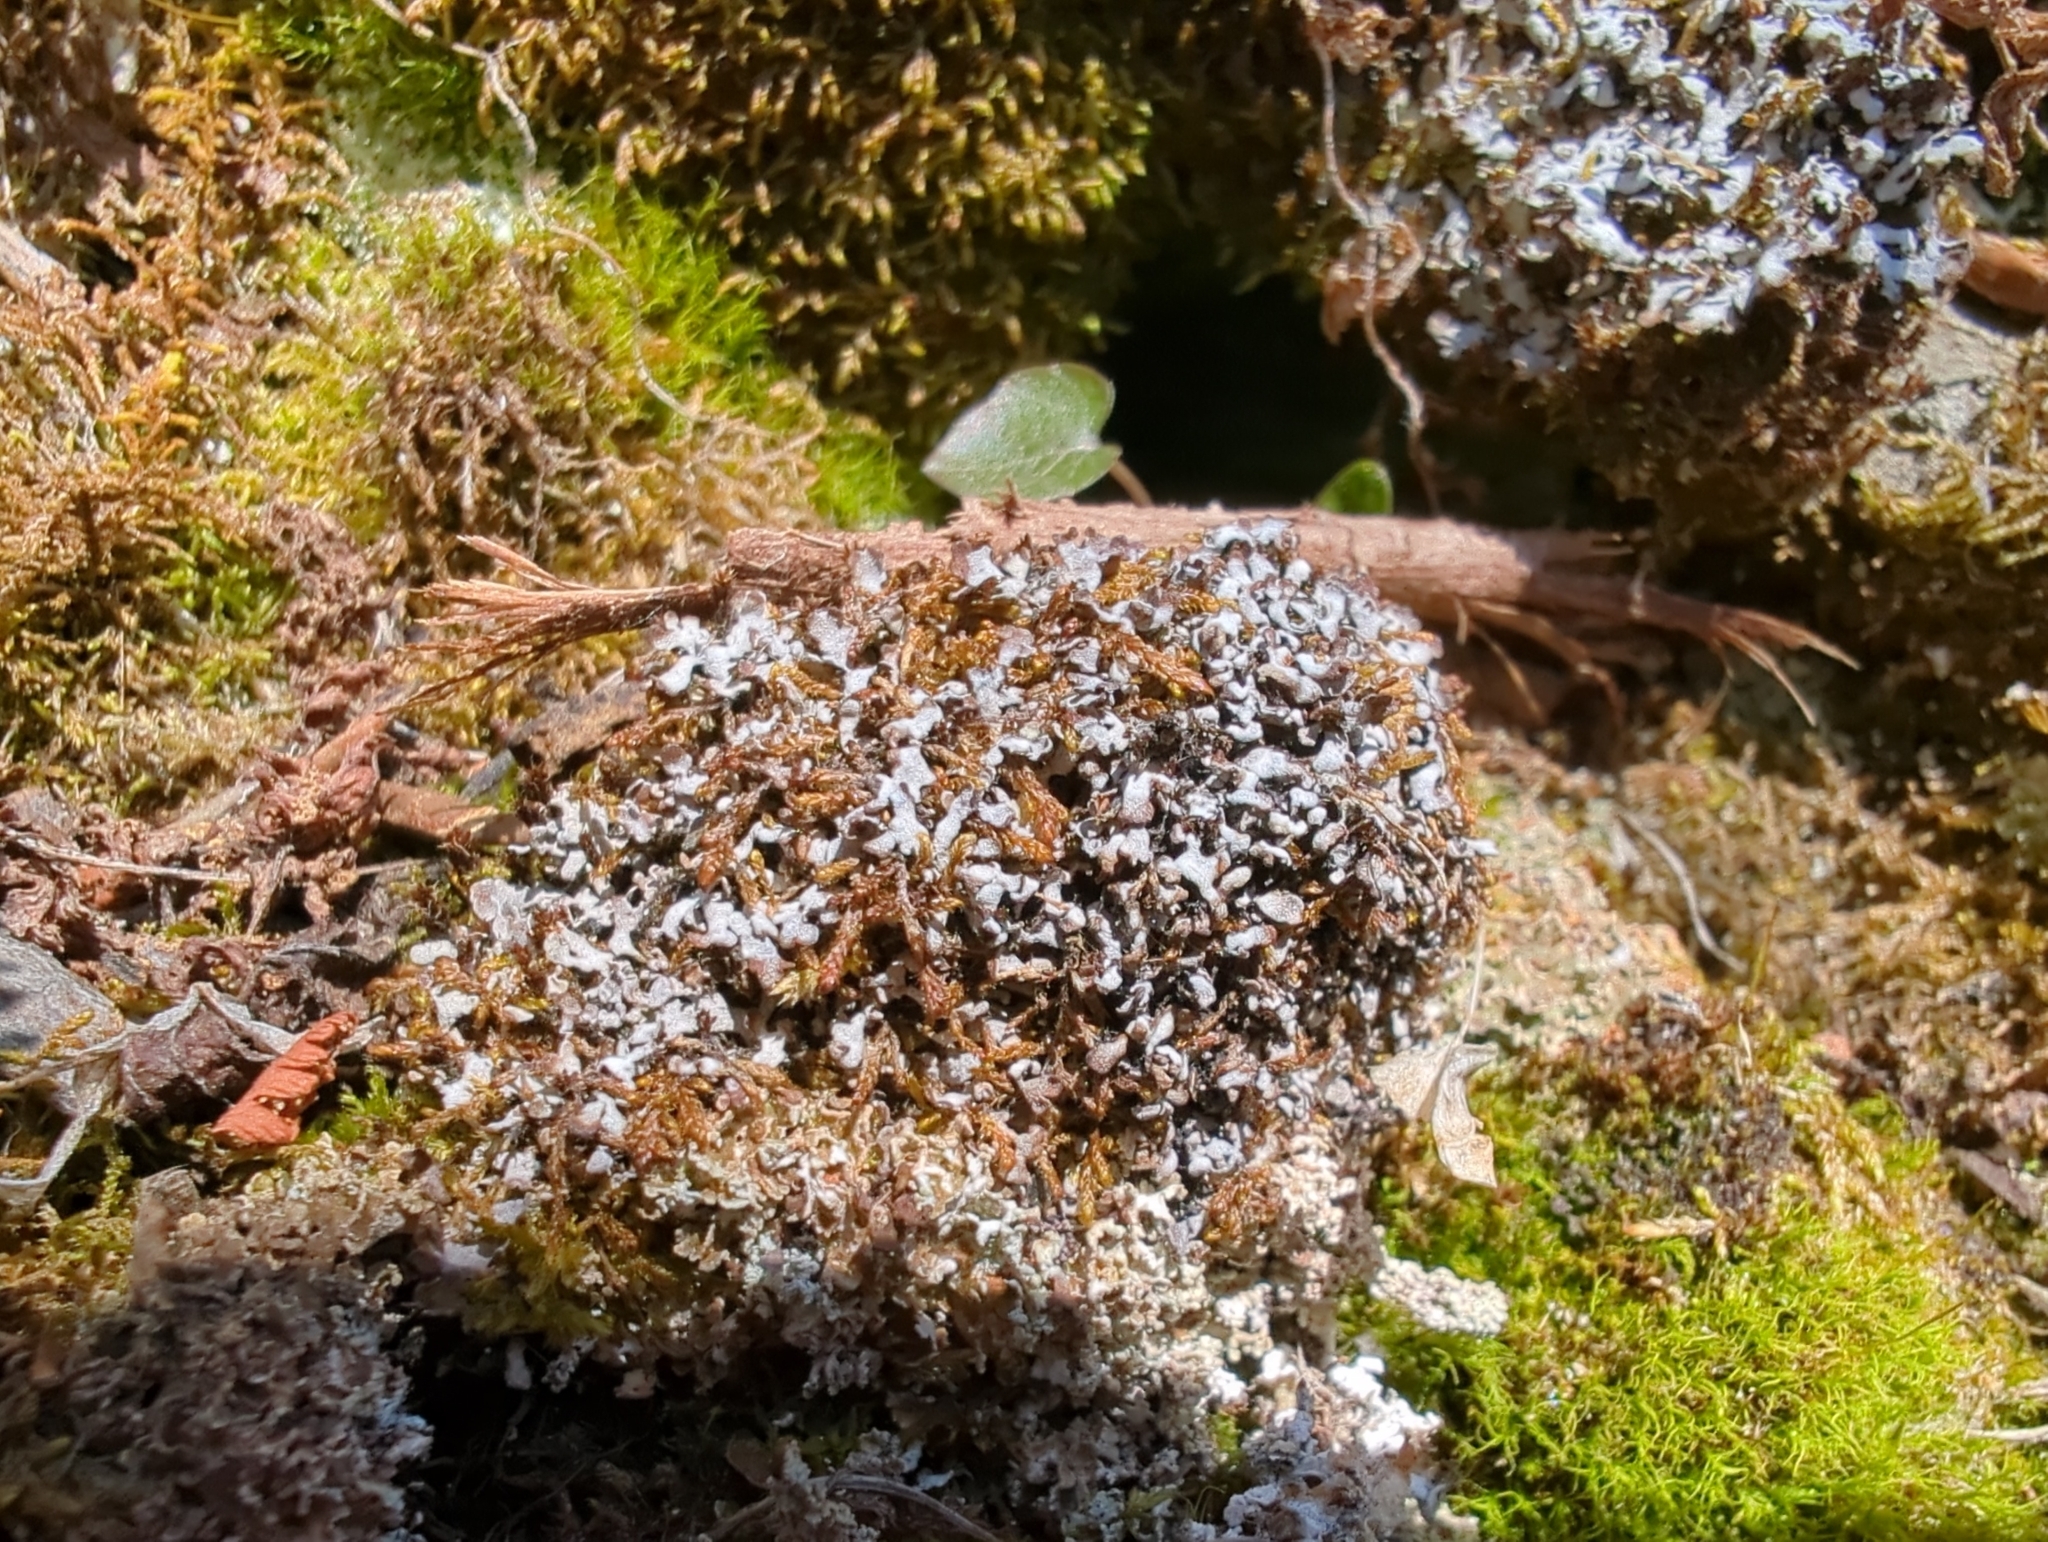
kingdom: Fungi
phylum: Ascomycota
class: Lecanoromycetes
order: Caliciales
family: Physciaceae
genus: Physconia
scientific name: Physconia muscigena
